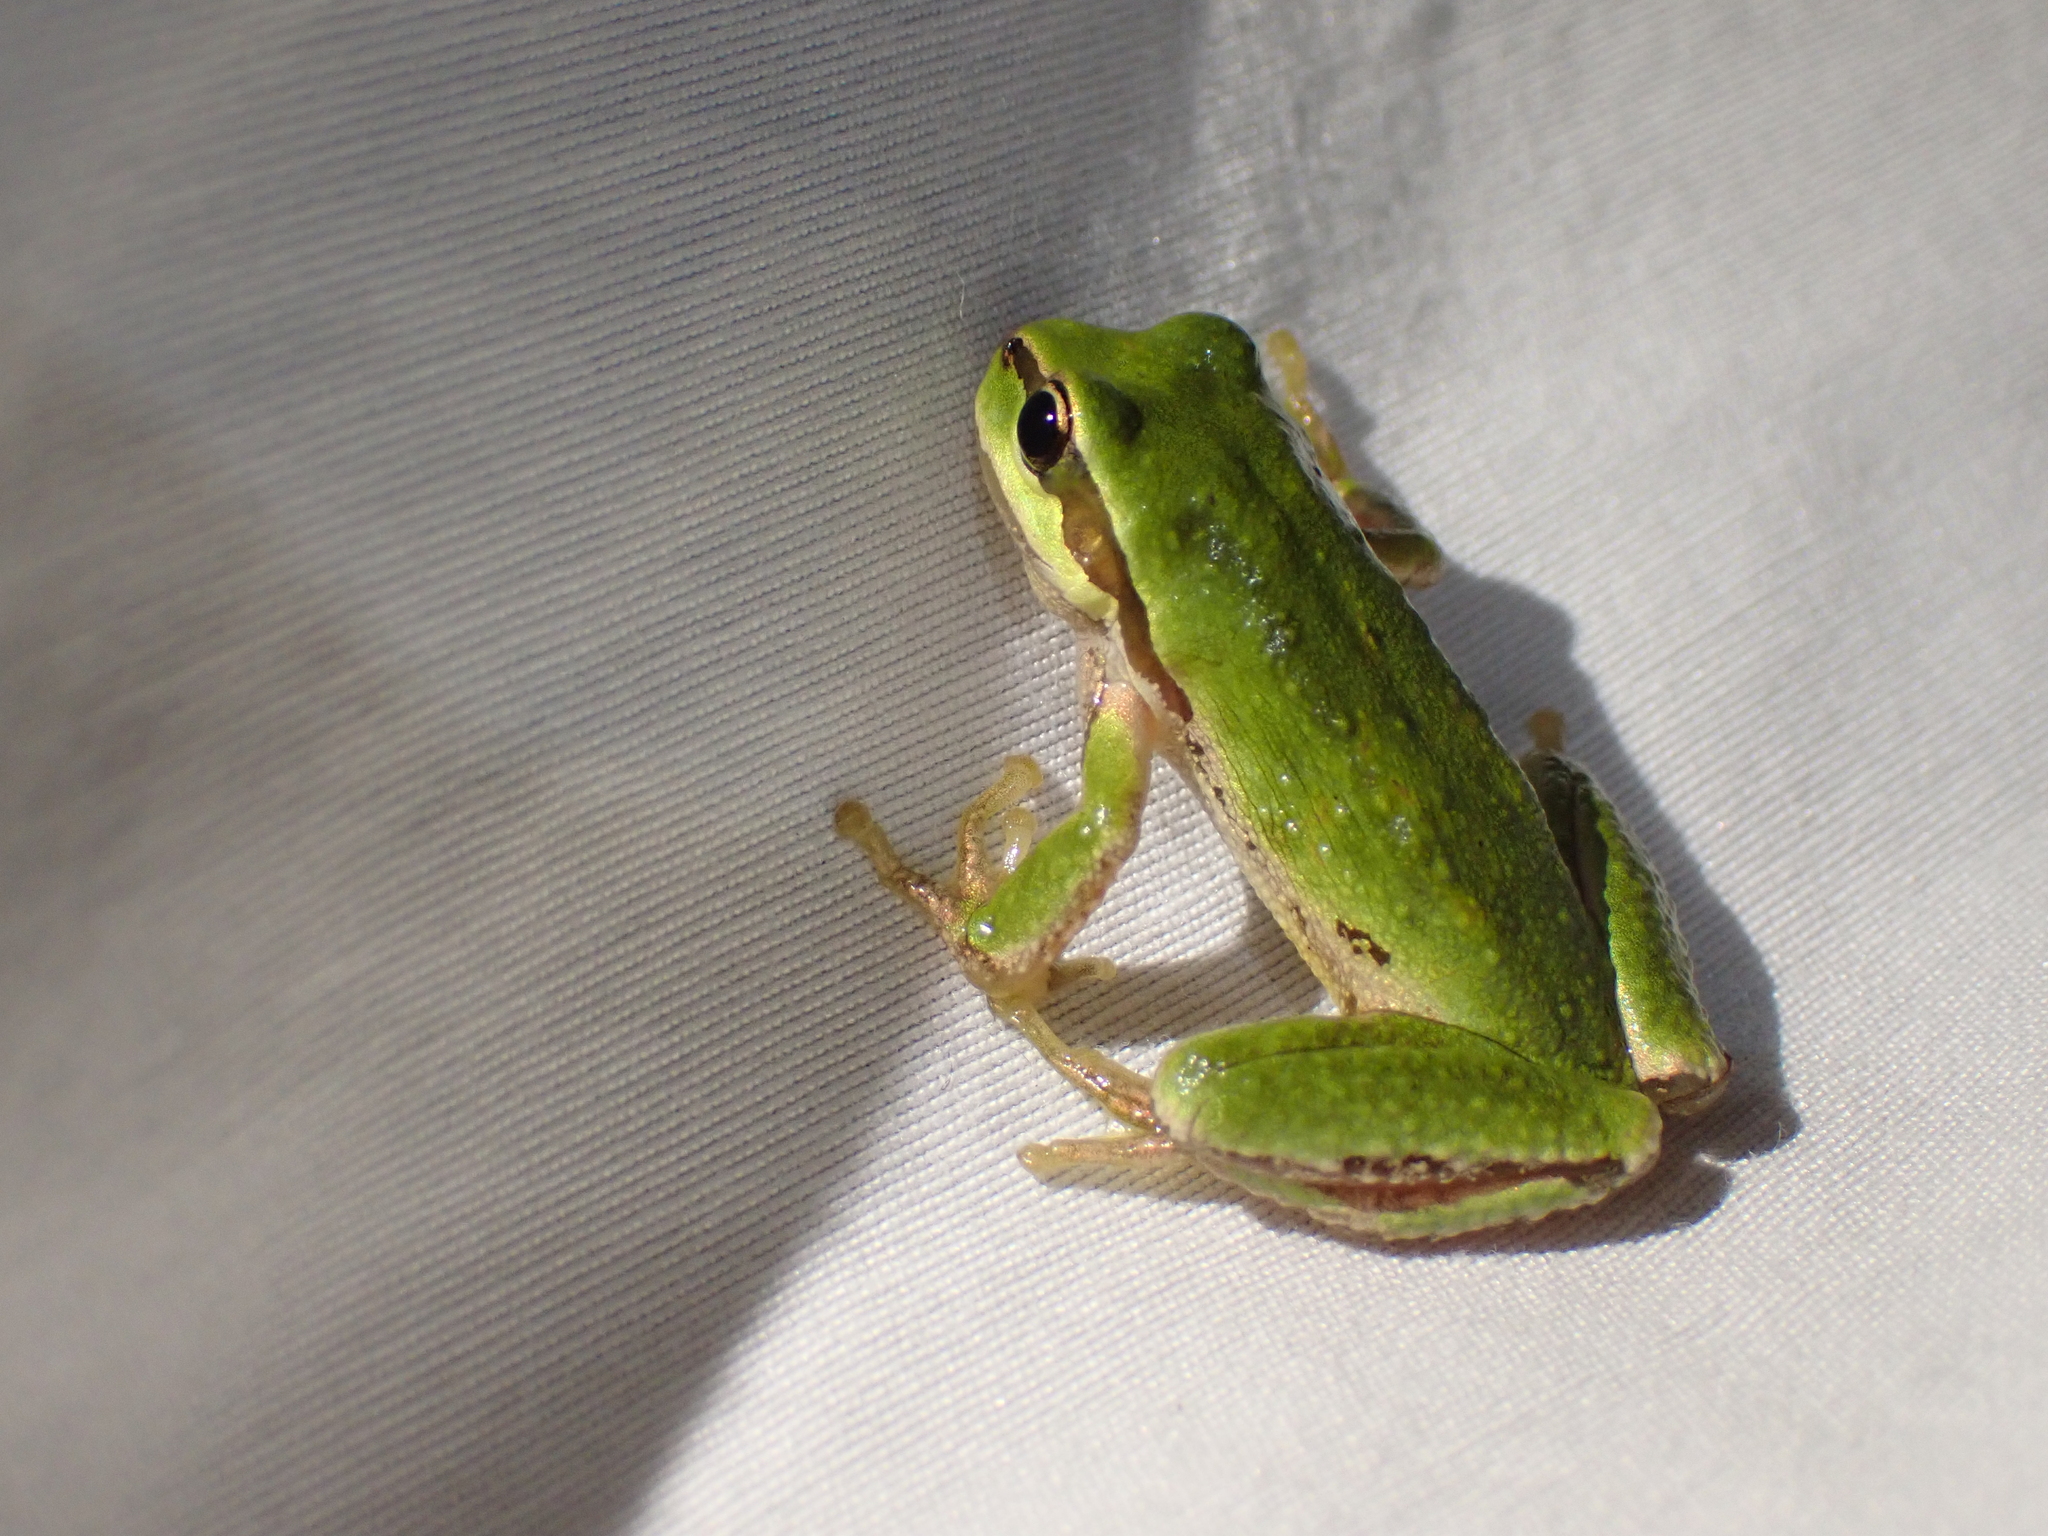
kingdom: Animalia
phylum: Chordata
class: Amphibia
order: Anura
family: Hylidae
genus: Pseudacris
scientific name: Pseudacris regilla
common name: Pacific chorus frog
